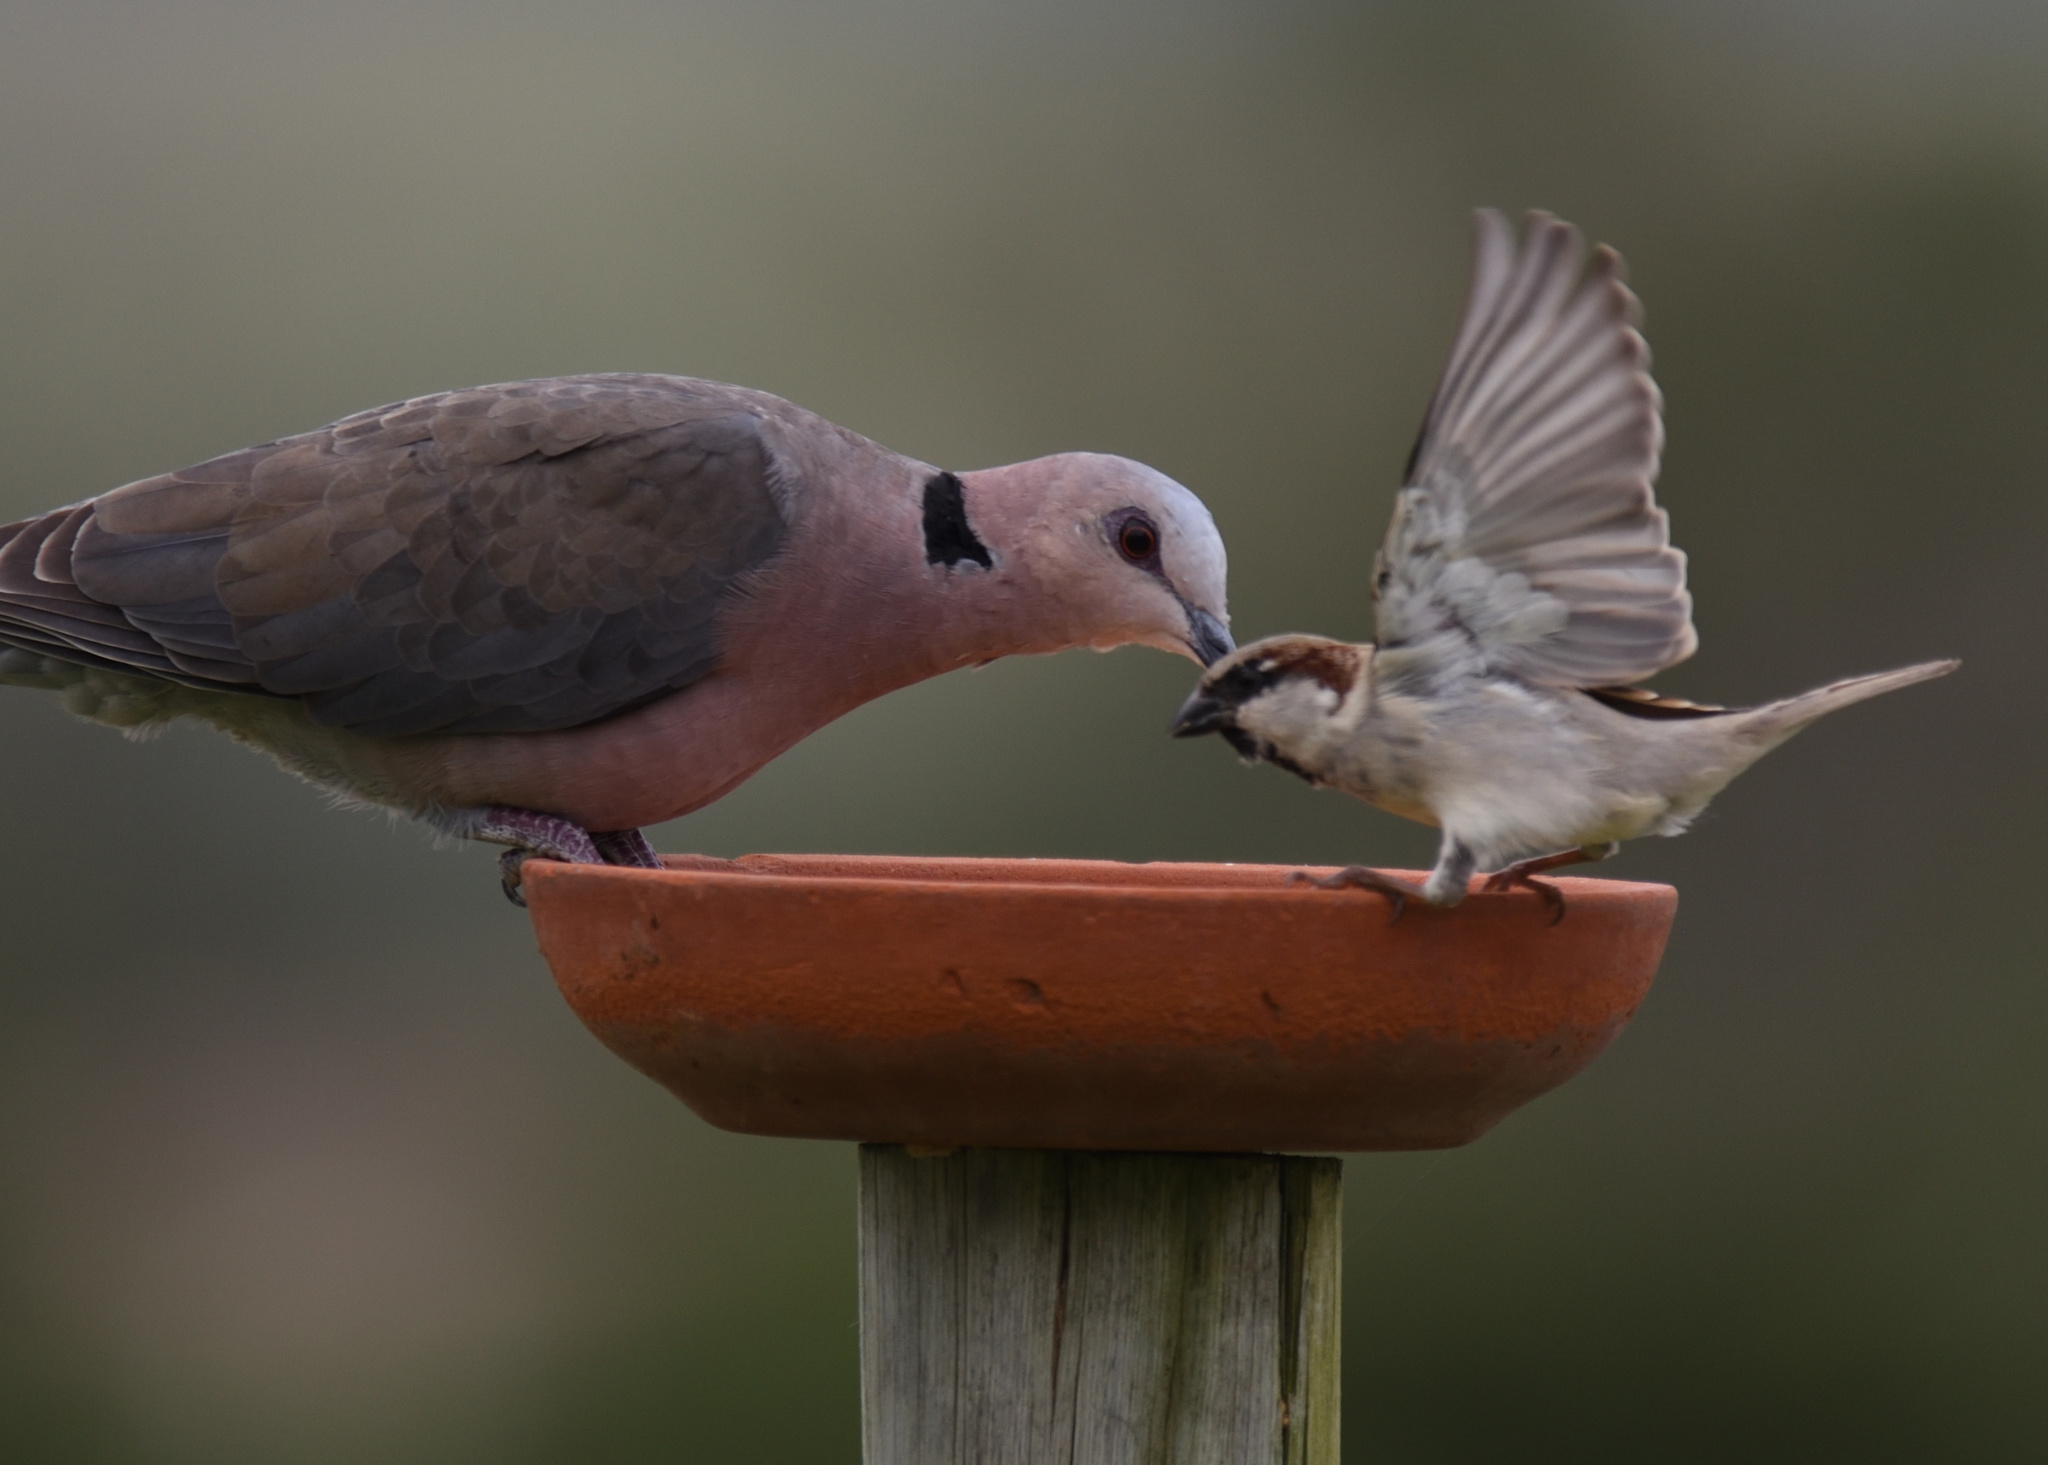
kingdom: Animalia
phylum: Chordata
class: Aves
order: Columbiformes
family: Columbidae
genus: Streptopelia
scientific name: Streptopelia semitorquata
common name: Red-eyed dove
